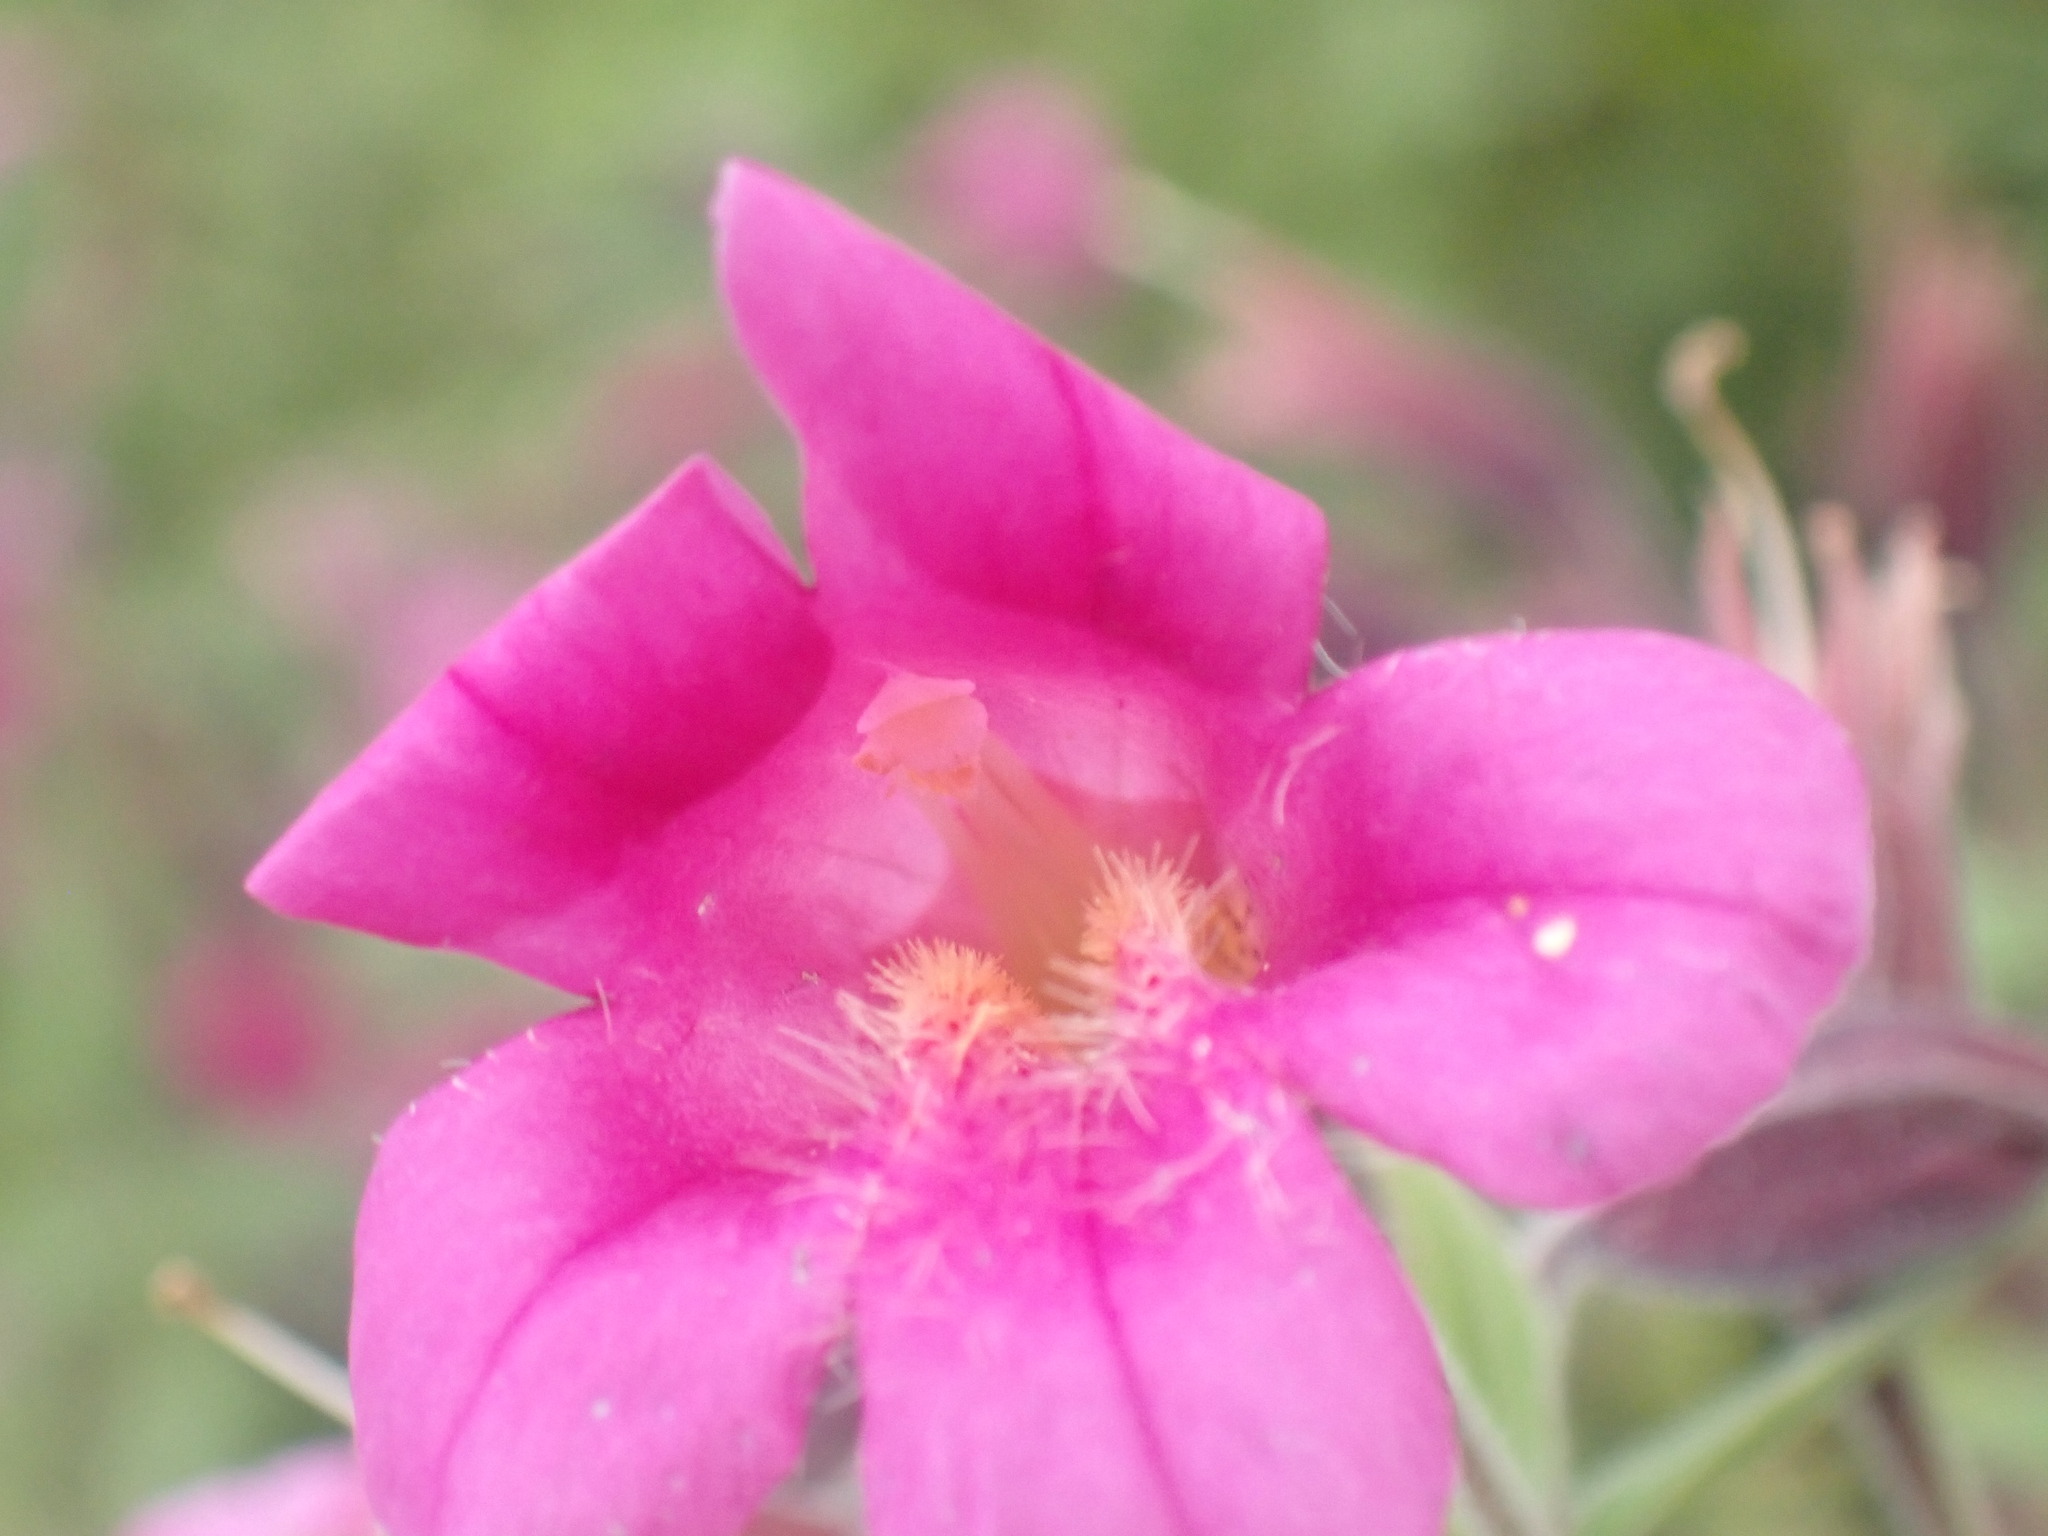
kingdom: Plantae
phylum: Tracheophyta
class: Magnoliopsida
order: Lamiales
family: Phrymaceae
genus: Erythranthe
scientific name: Erythranthe lewisii
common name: Lewis's monkey-flower
